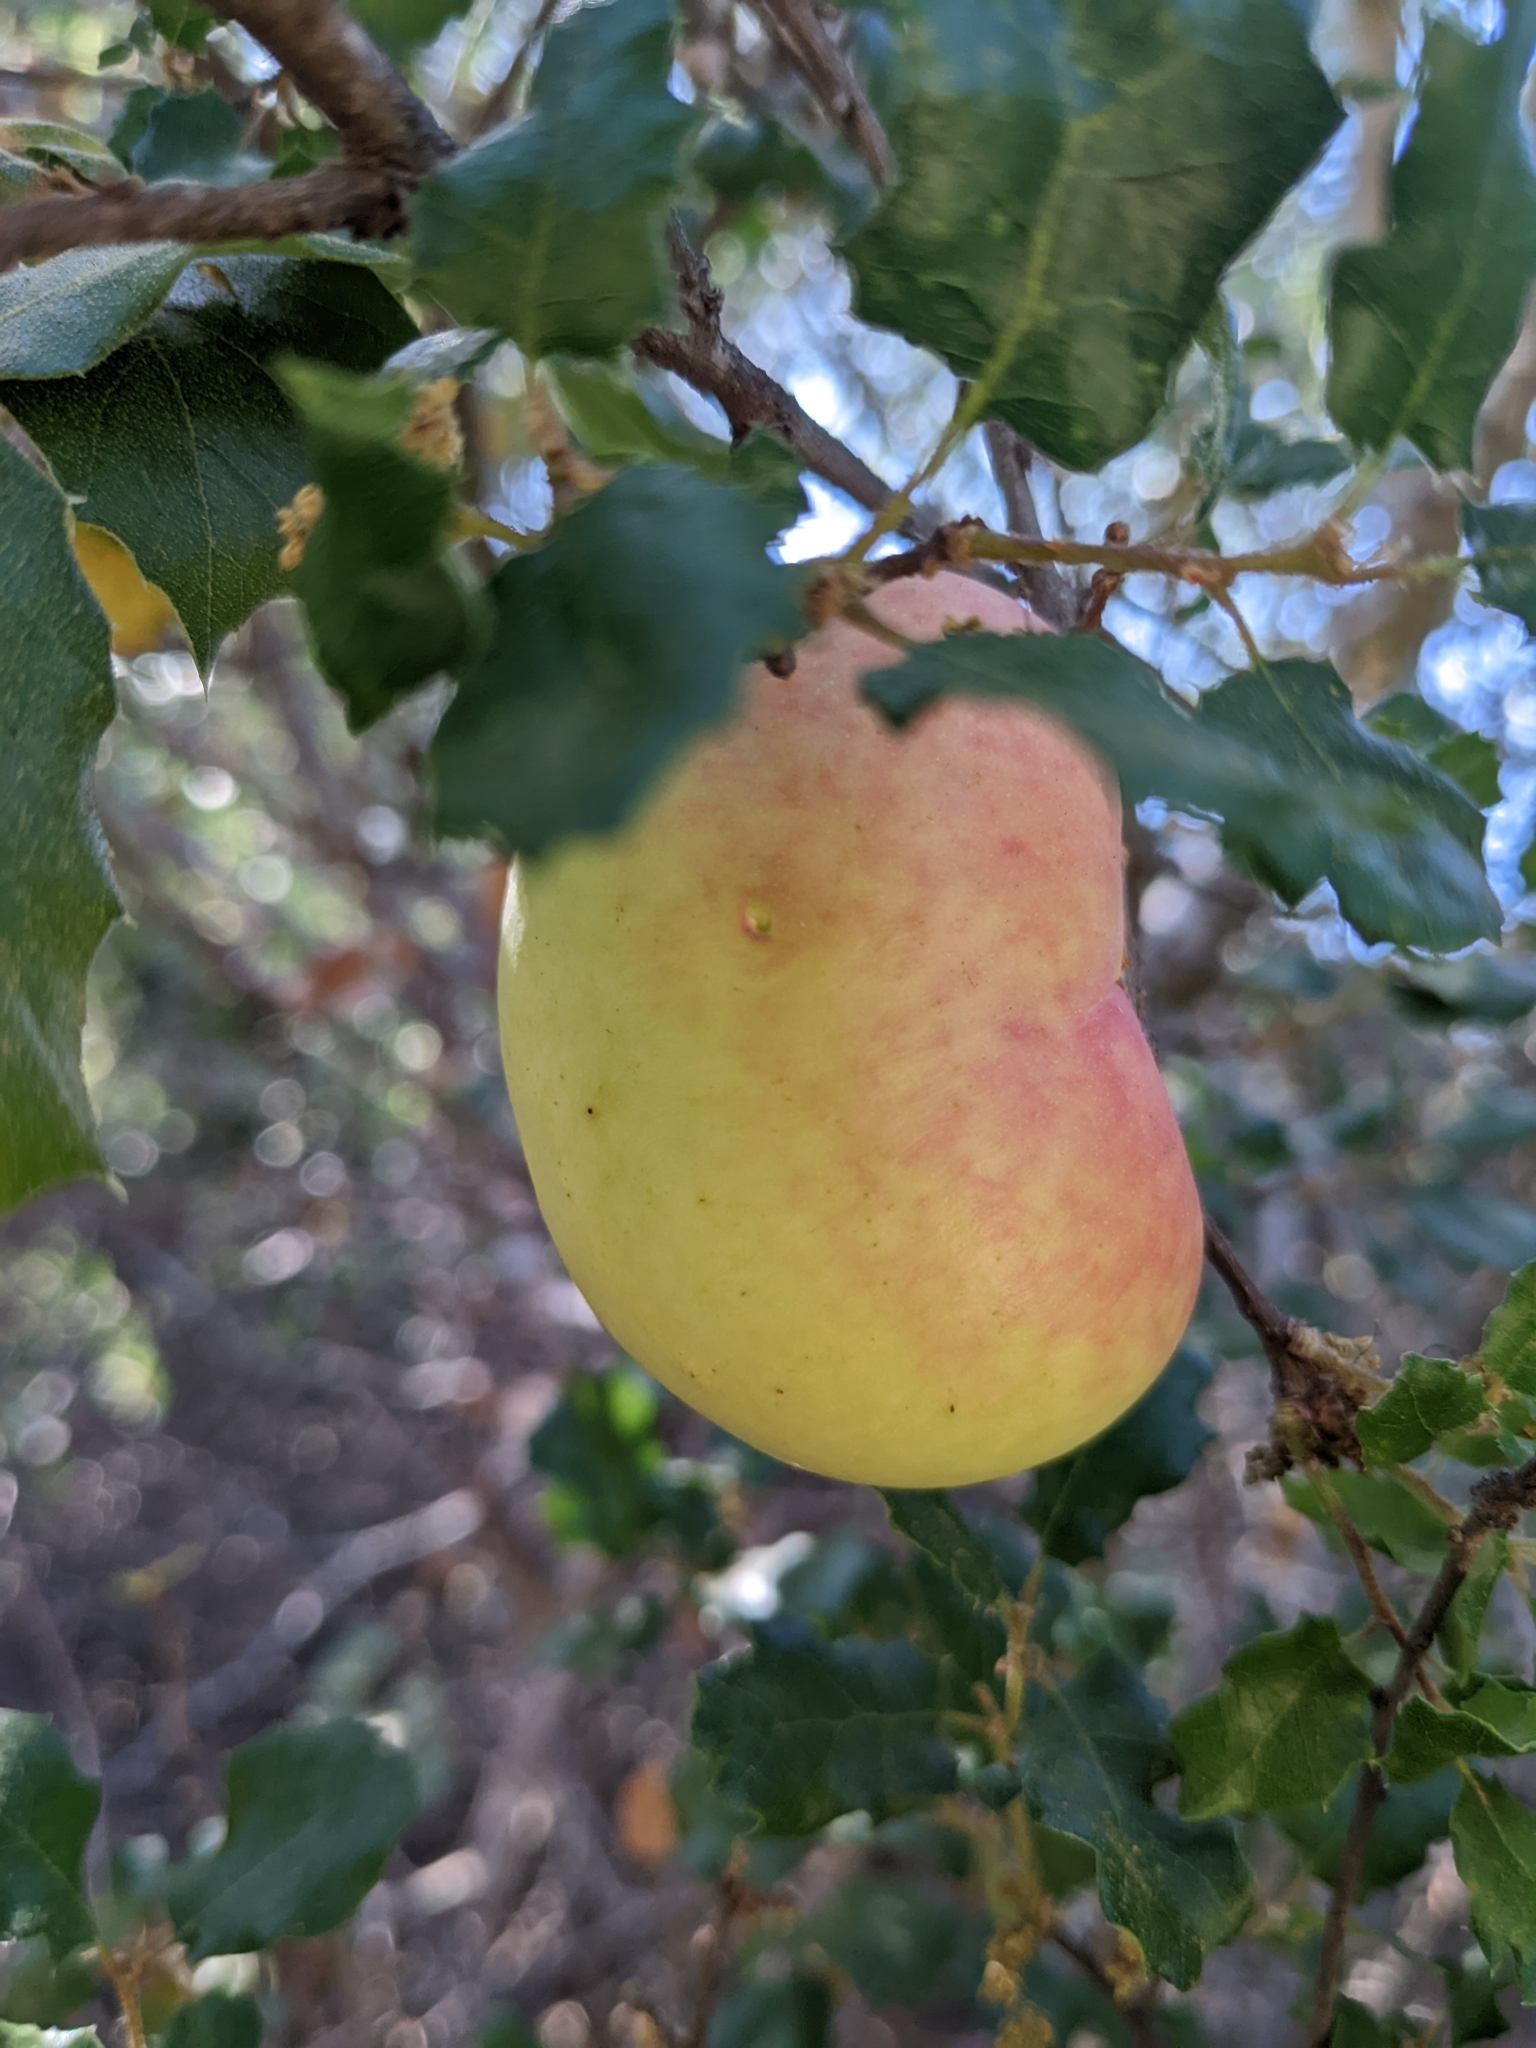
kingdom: Animalia
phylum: Arthropoda
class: Insecta
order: Hymenoptera
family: Cynipidae
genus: Andricus
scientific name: Andricus quercuscalifornicus
